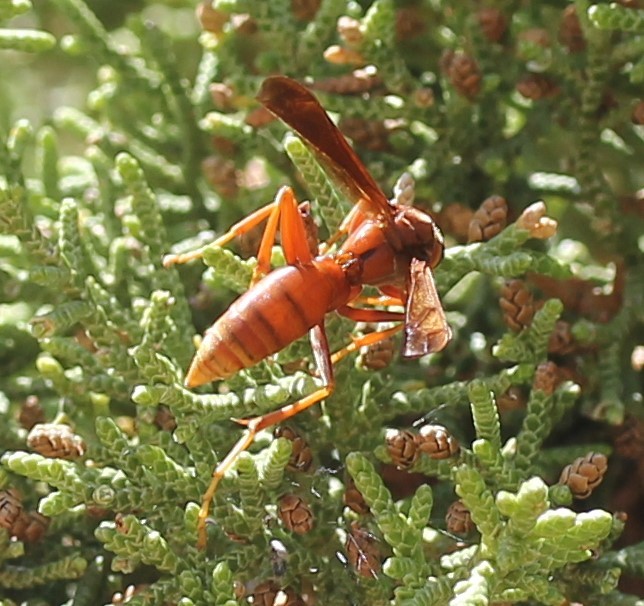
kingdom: Animalia
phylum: Arthropoda
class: Insecta
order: Hymenoptera
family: Eumenidae
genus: Polistes
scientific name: Polistes kaibabensis
